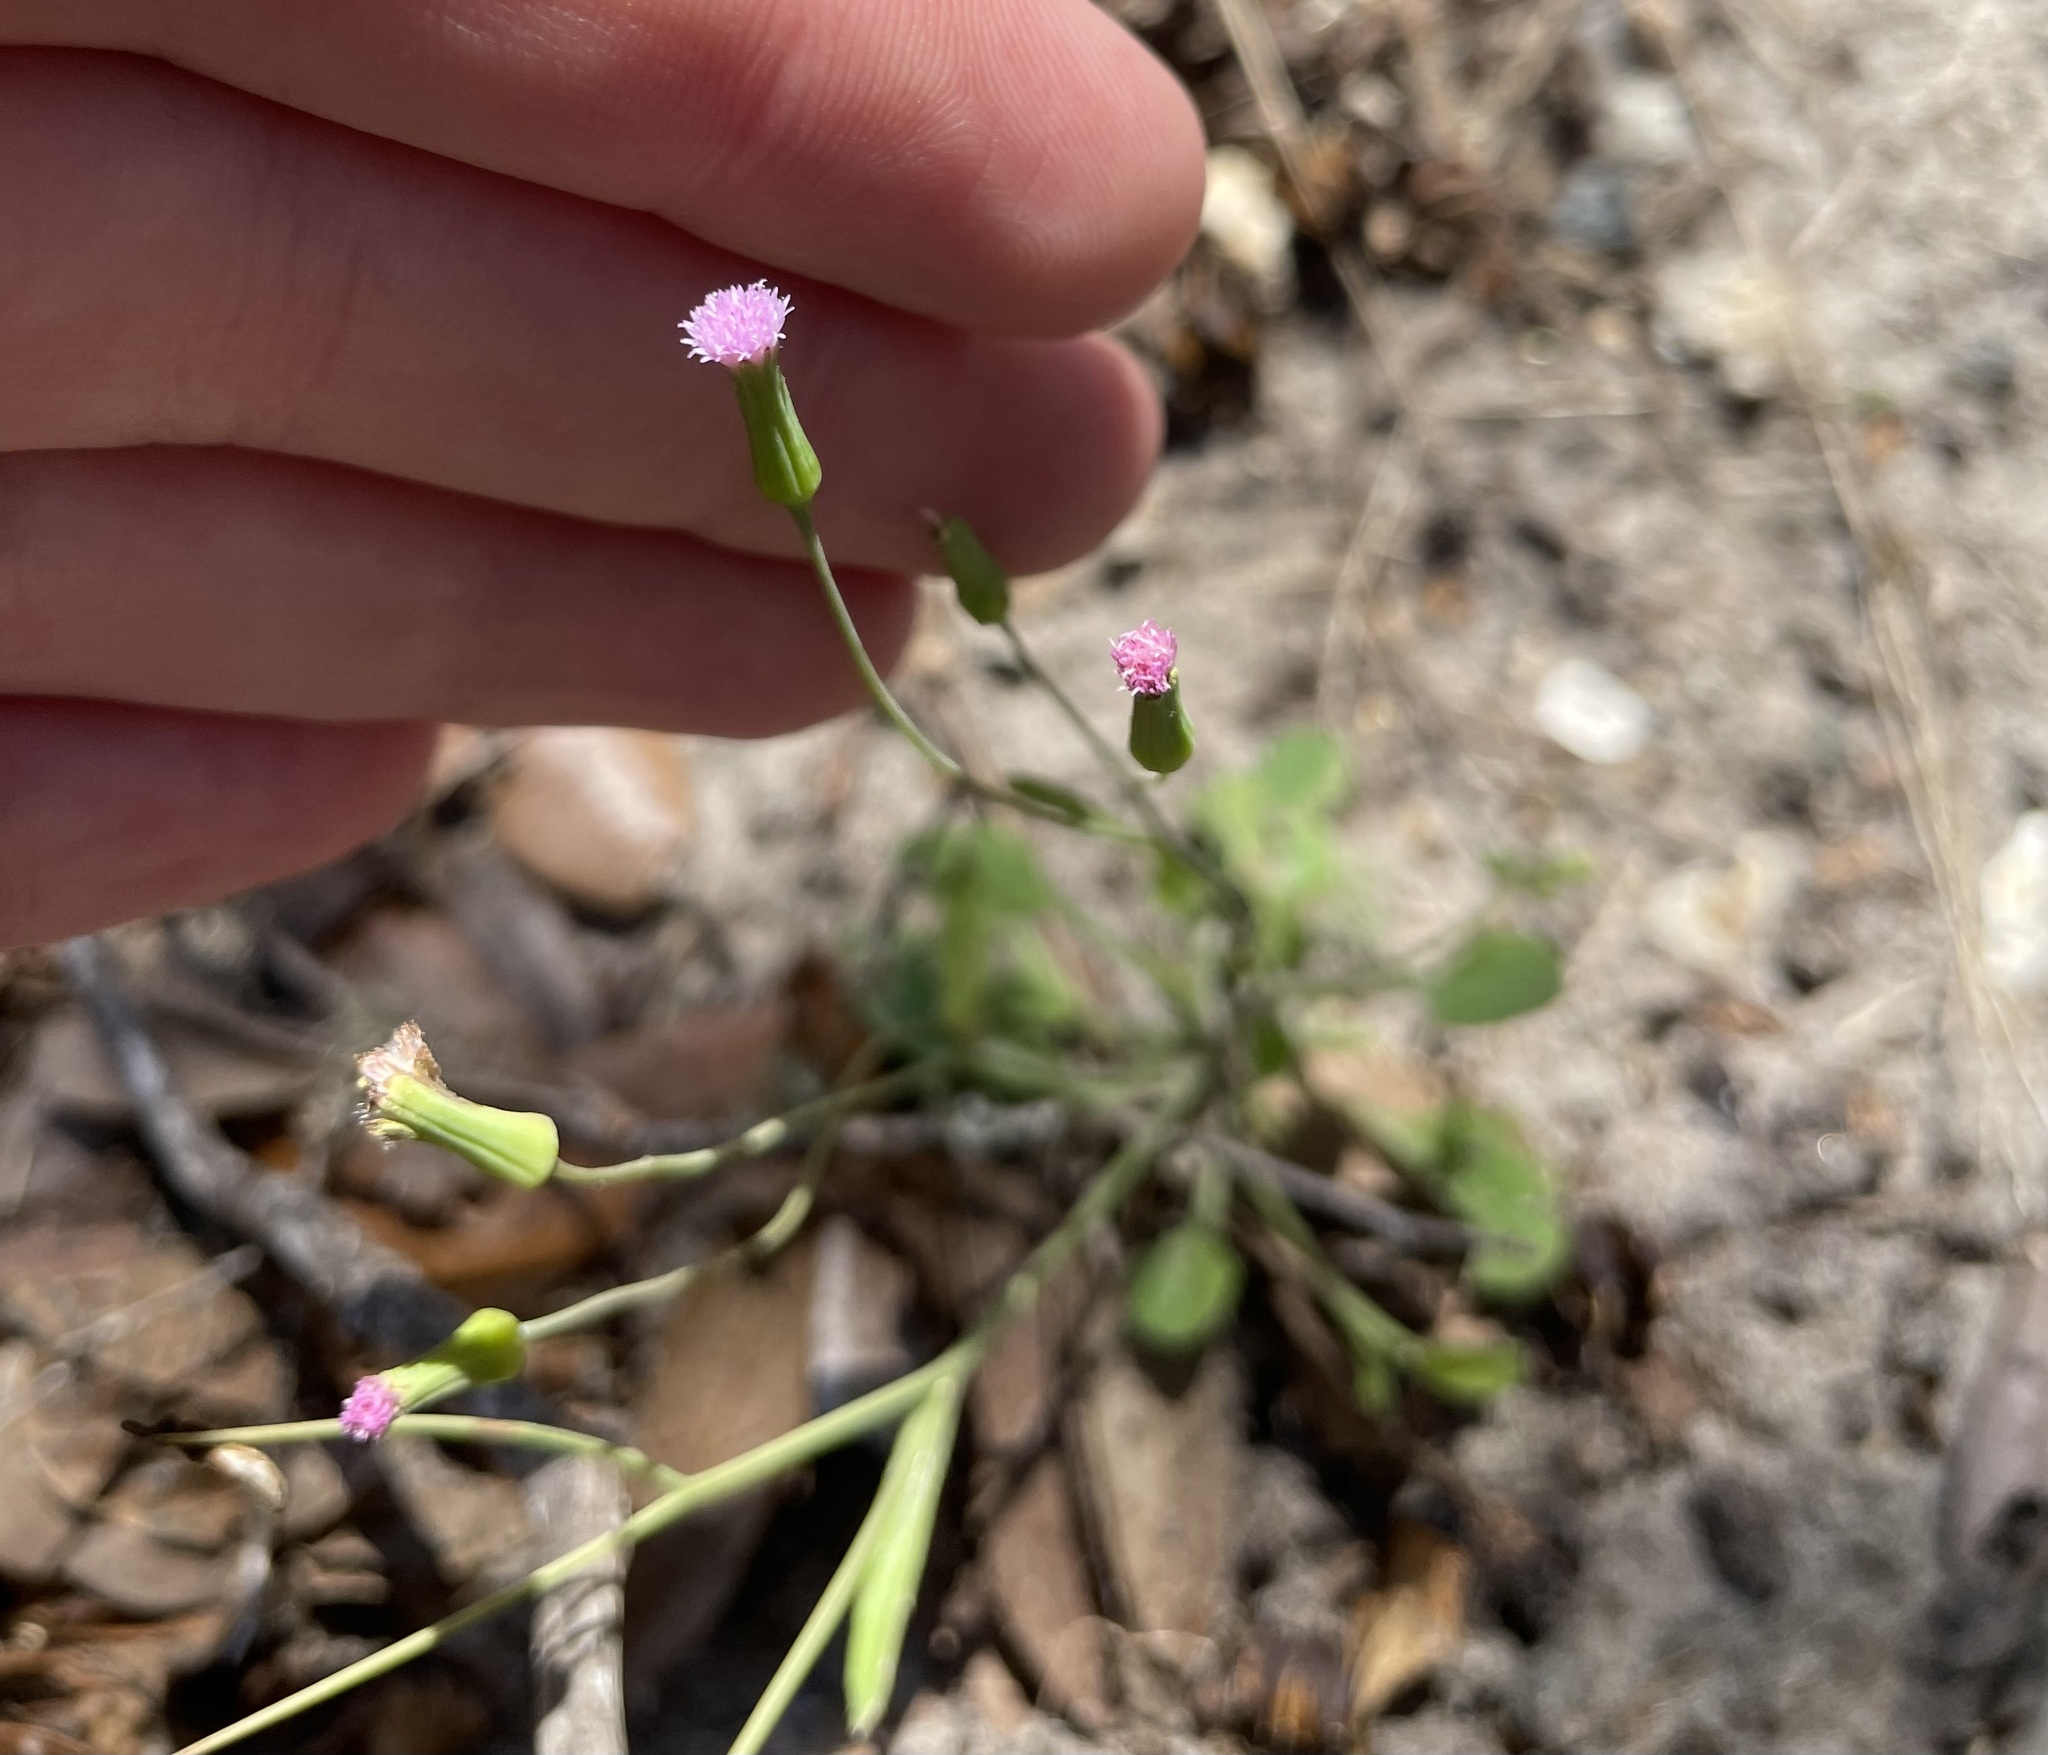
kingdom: Plantae
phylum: Tracheophyta
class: Magnoliopsida
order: Asterales
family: Asteraceae
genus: Emilia
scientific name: Emilia sonchifolia
